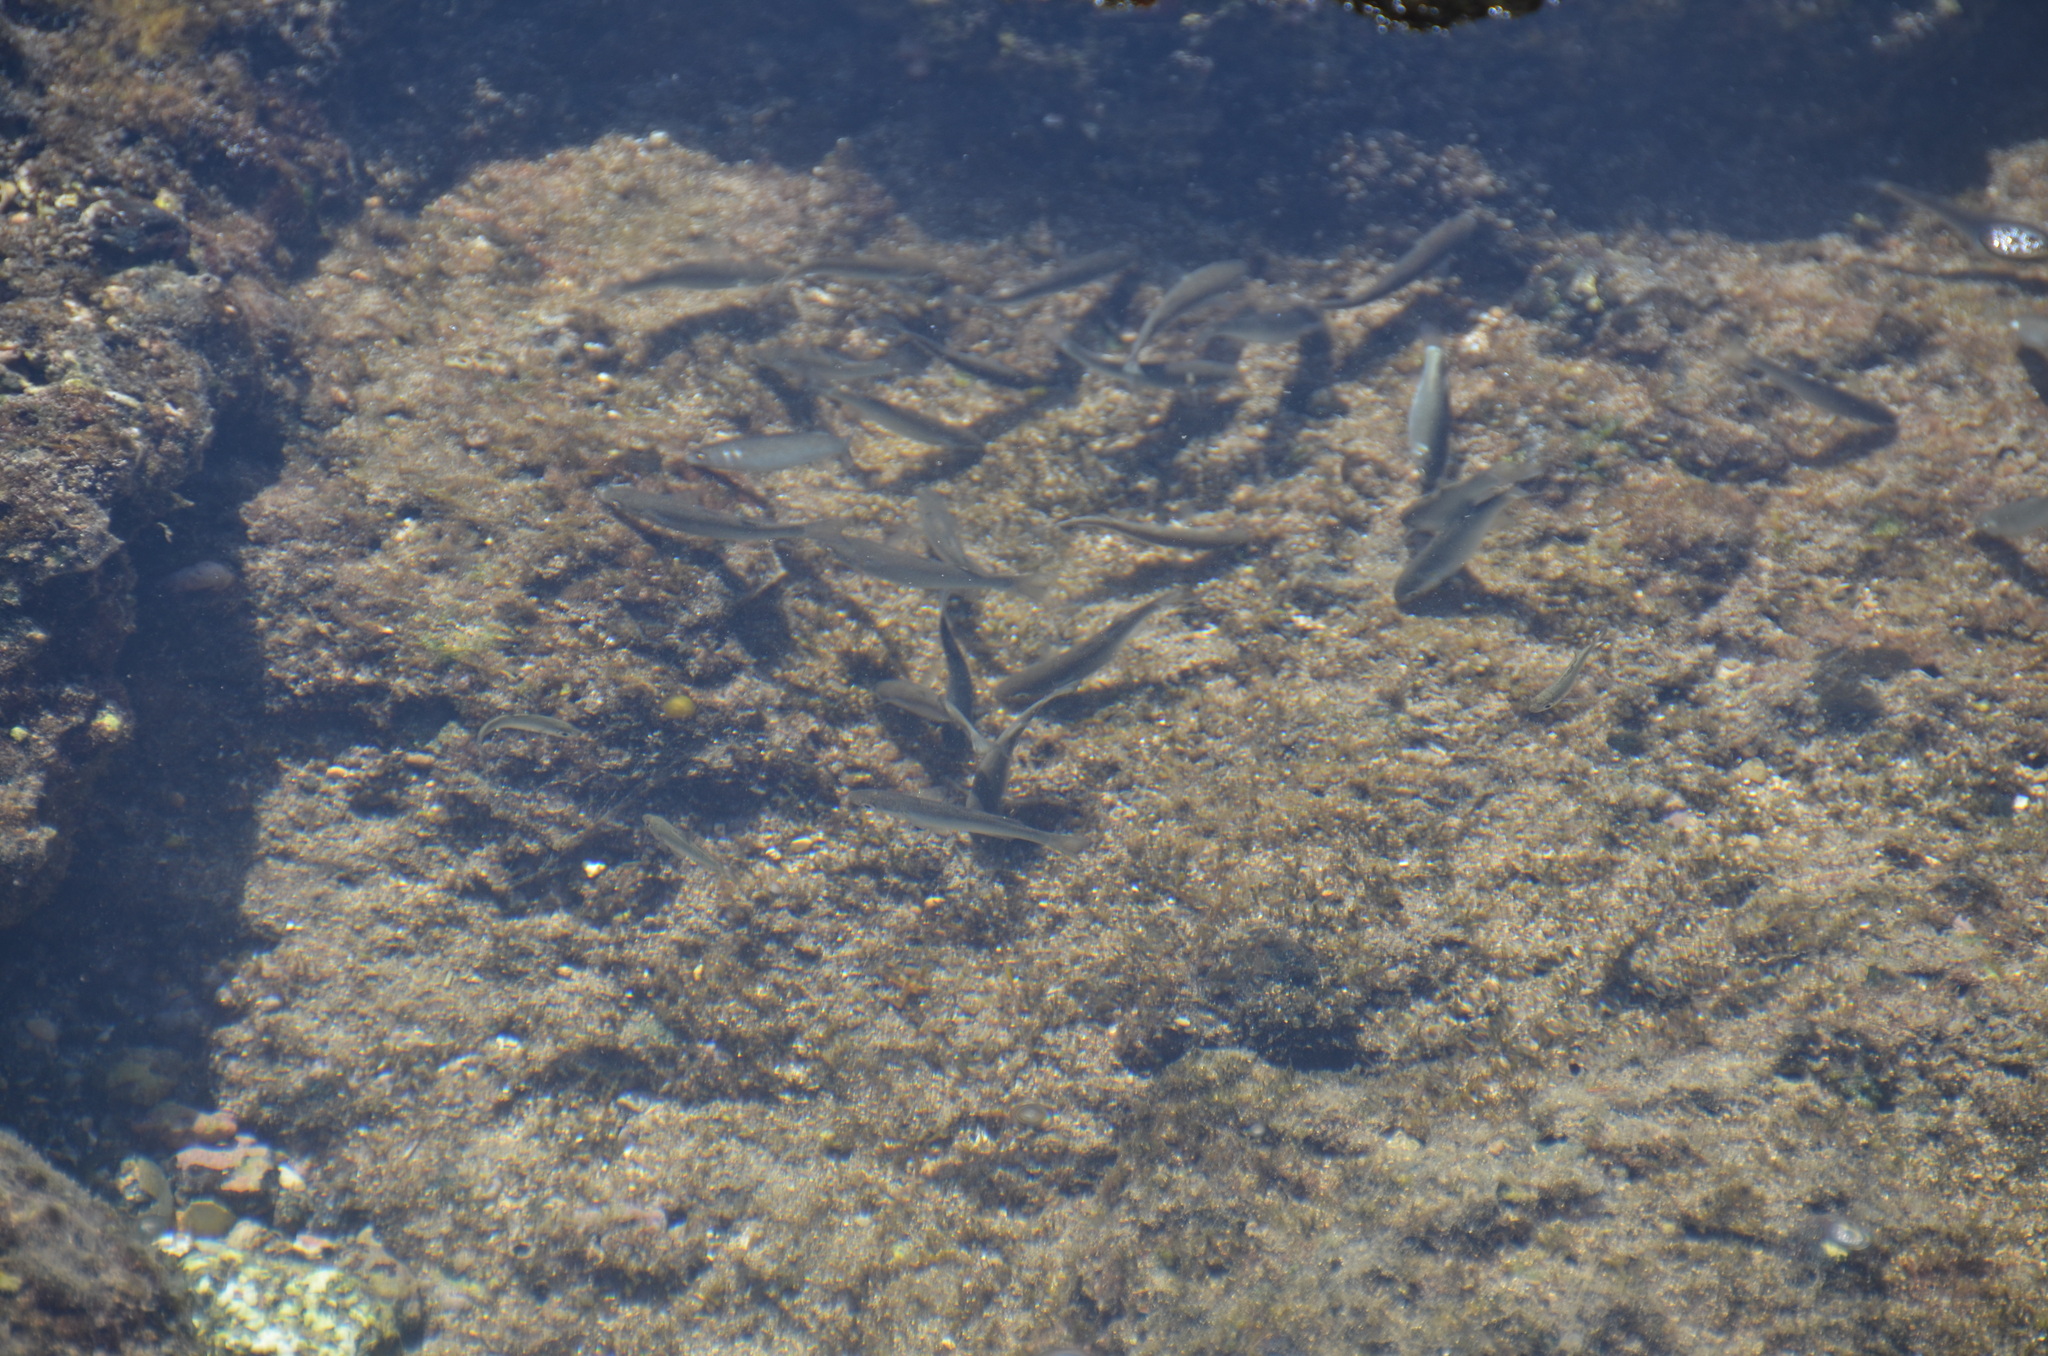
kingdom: Animalia
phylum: Chordata
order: Mugiliformes
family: Mugilidae
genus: Neomyxus
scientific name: Neomyxus leuciscus
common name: Acute-jawed mullet
